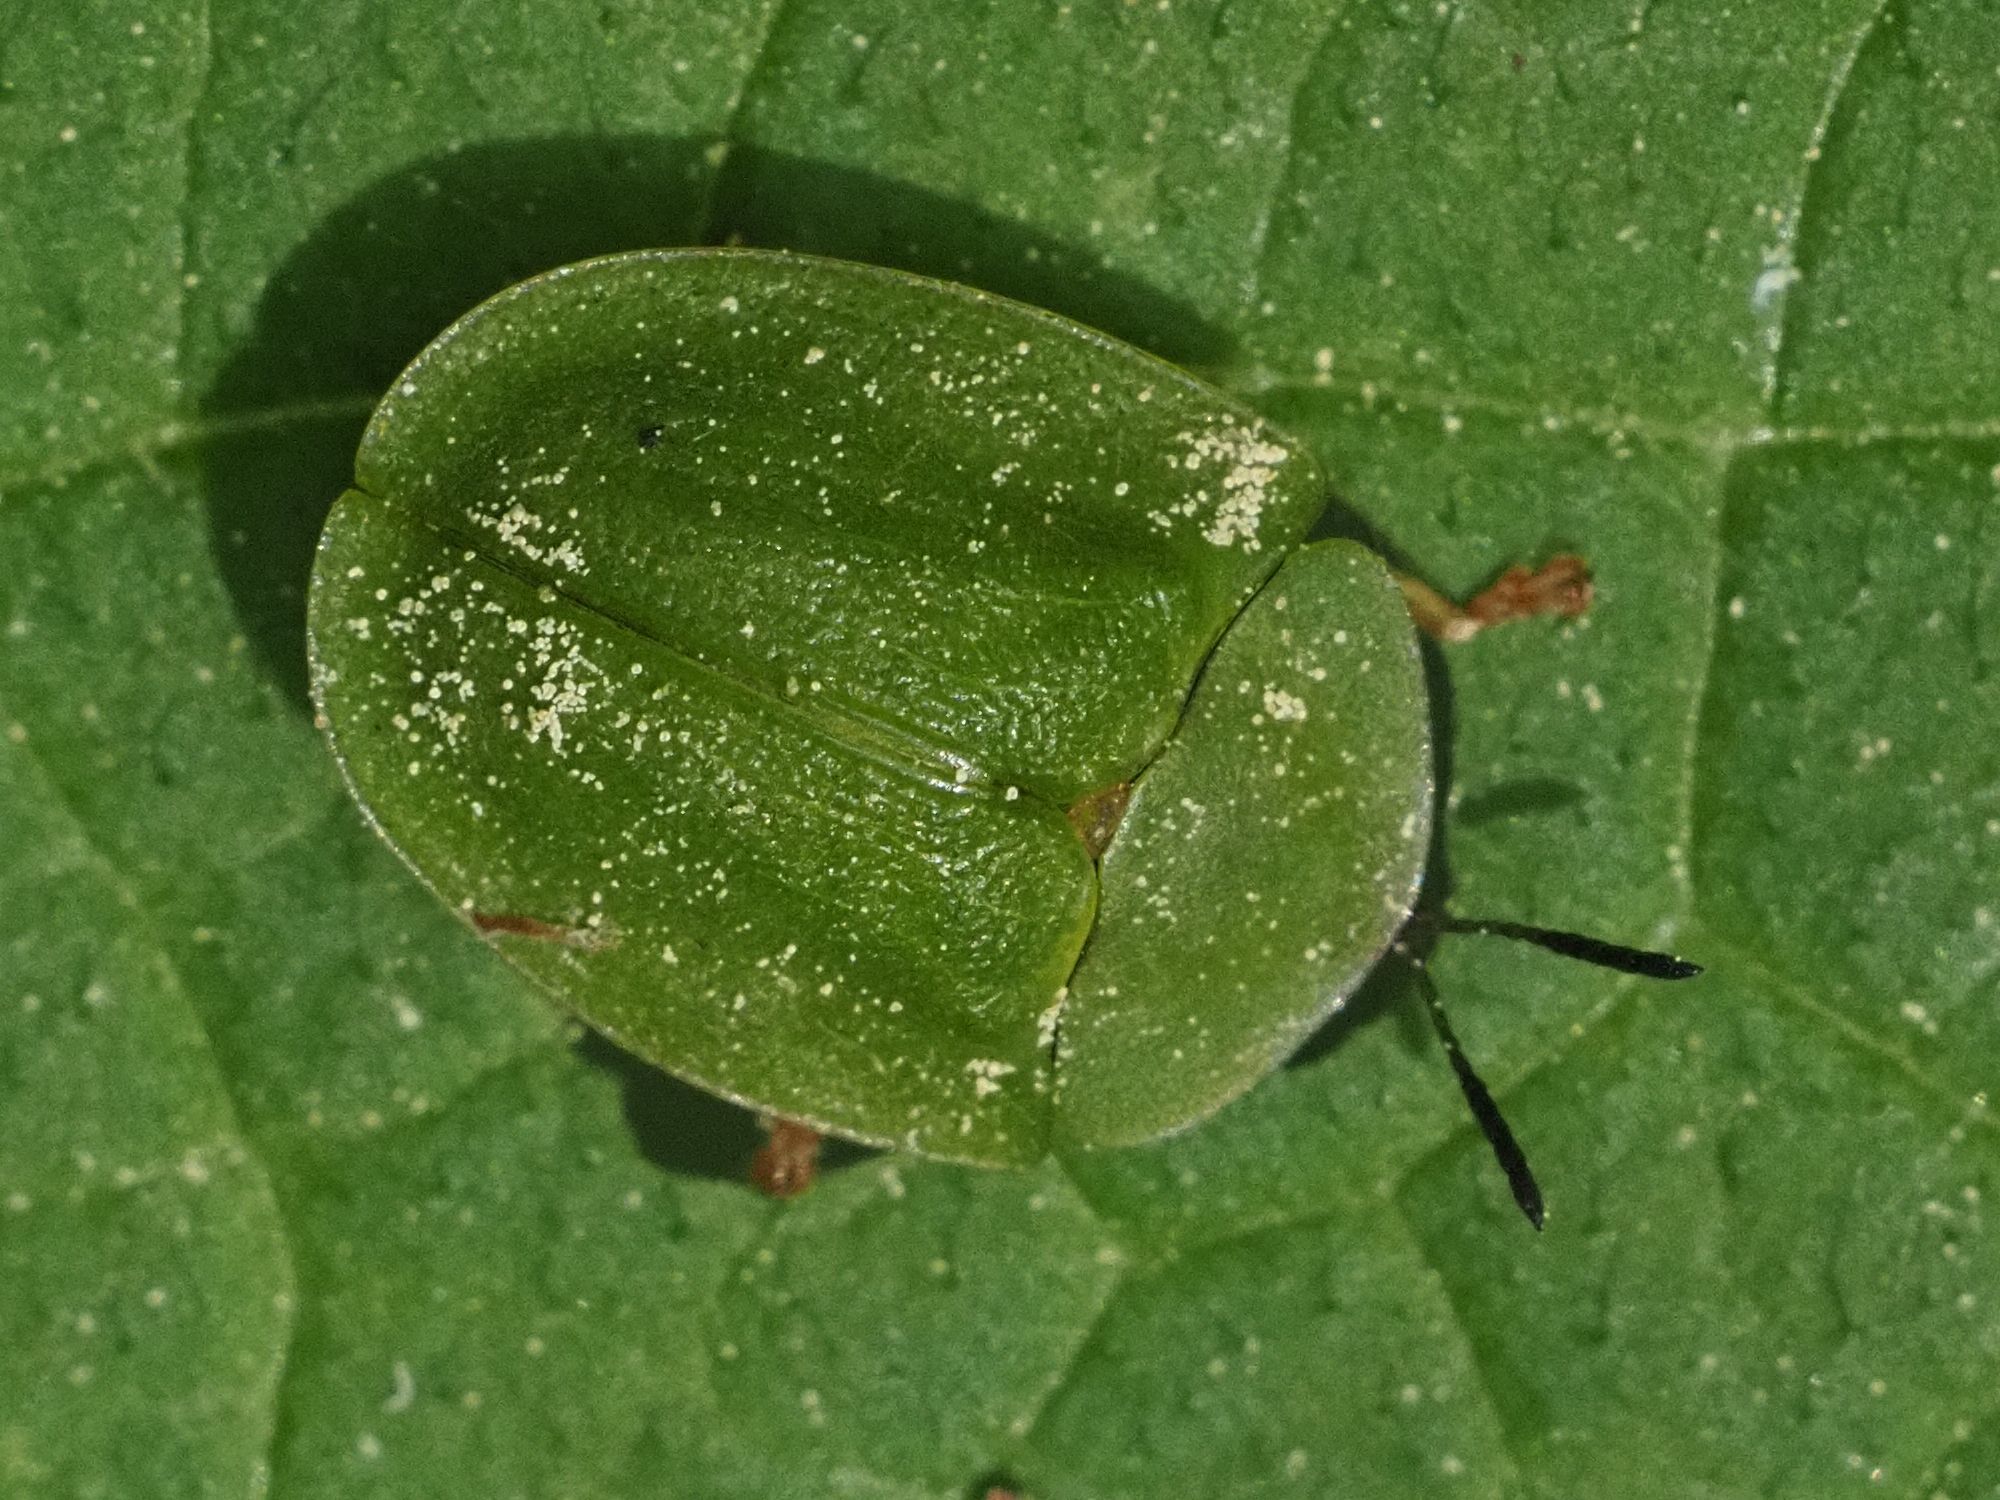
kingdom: Animalia
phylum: Arthropoda
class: Insecta
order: Coleoptera
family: Chrysomelidae
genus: Cassida
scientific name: Cassida viridis
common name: Green tortoise beetle
